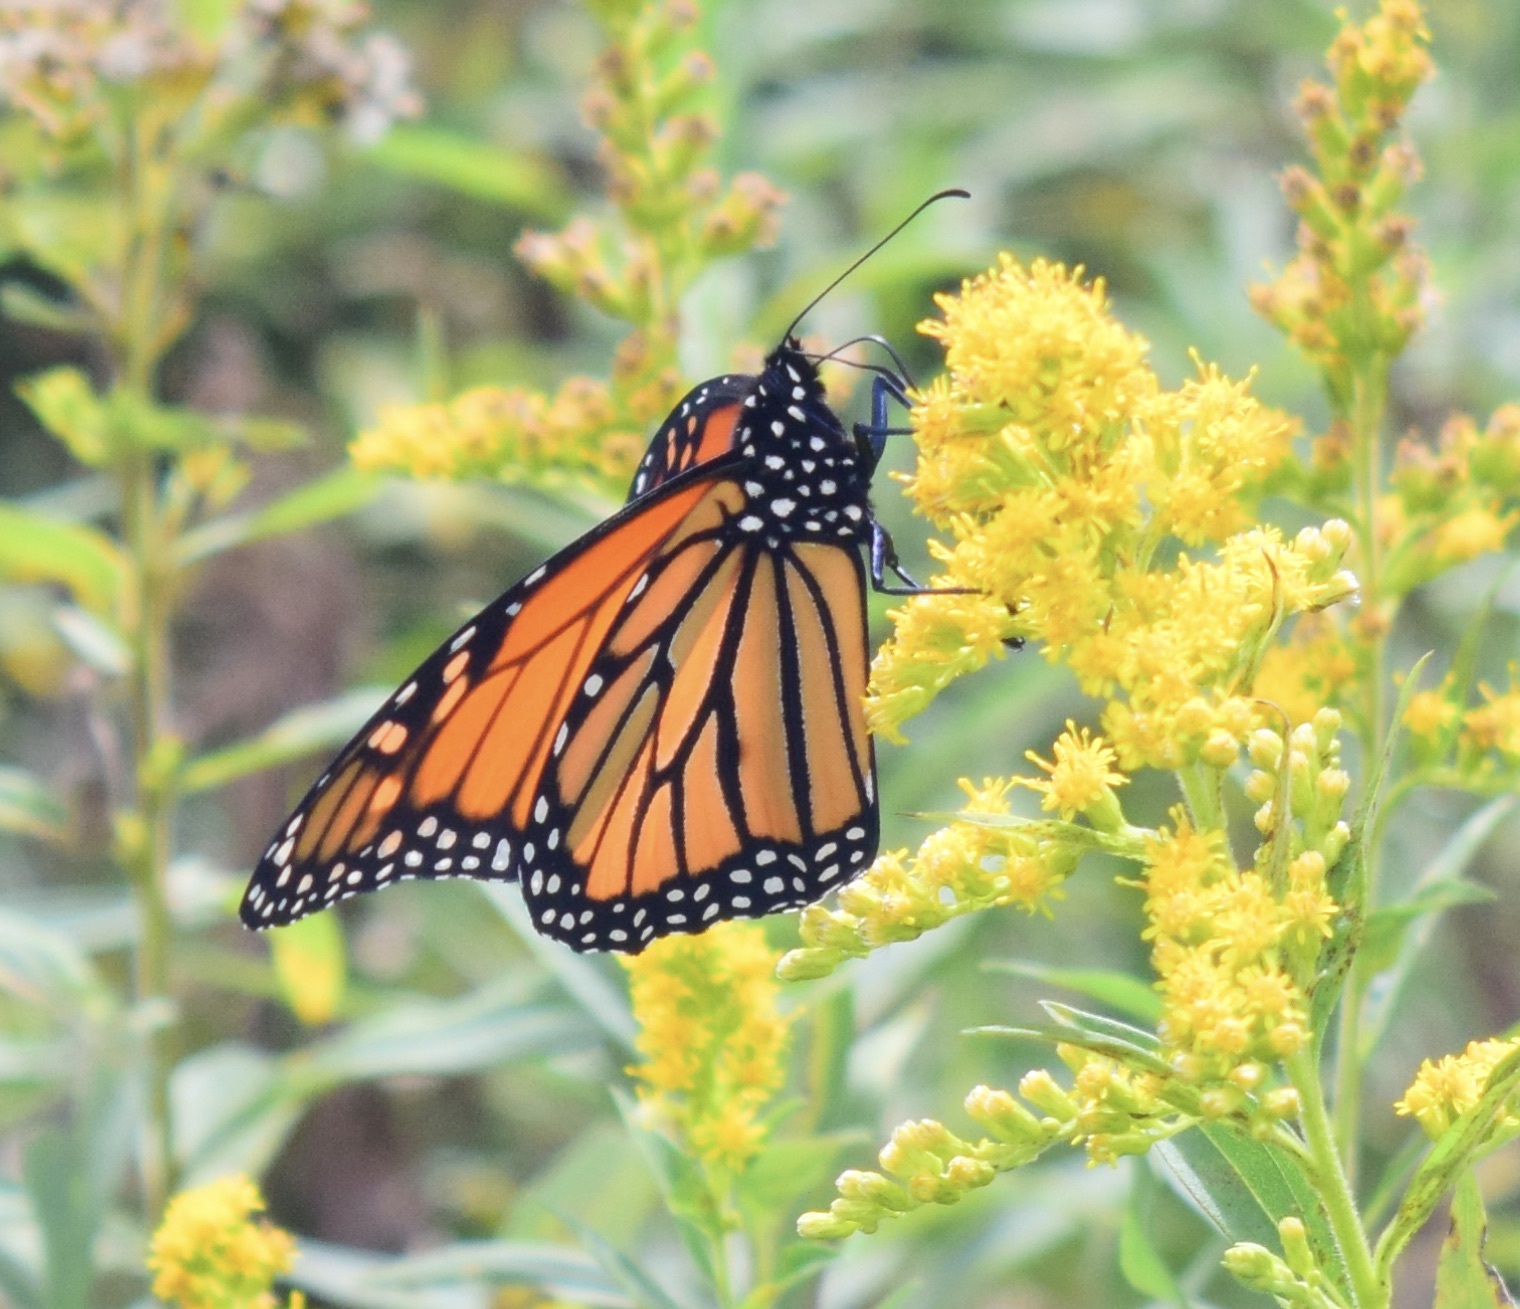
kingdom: Animalia
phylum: Arthropoda
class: Insecta
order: Lepidoptera
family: Nymphalidae
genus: Danaus
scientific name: Danaus plexippus
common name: Monarch
